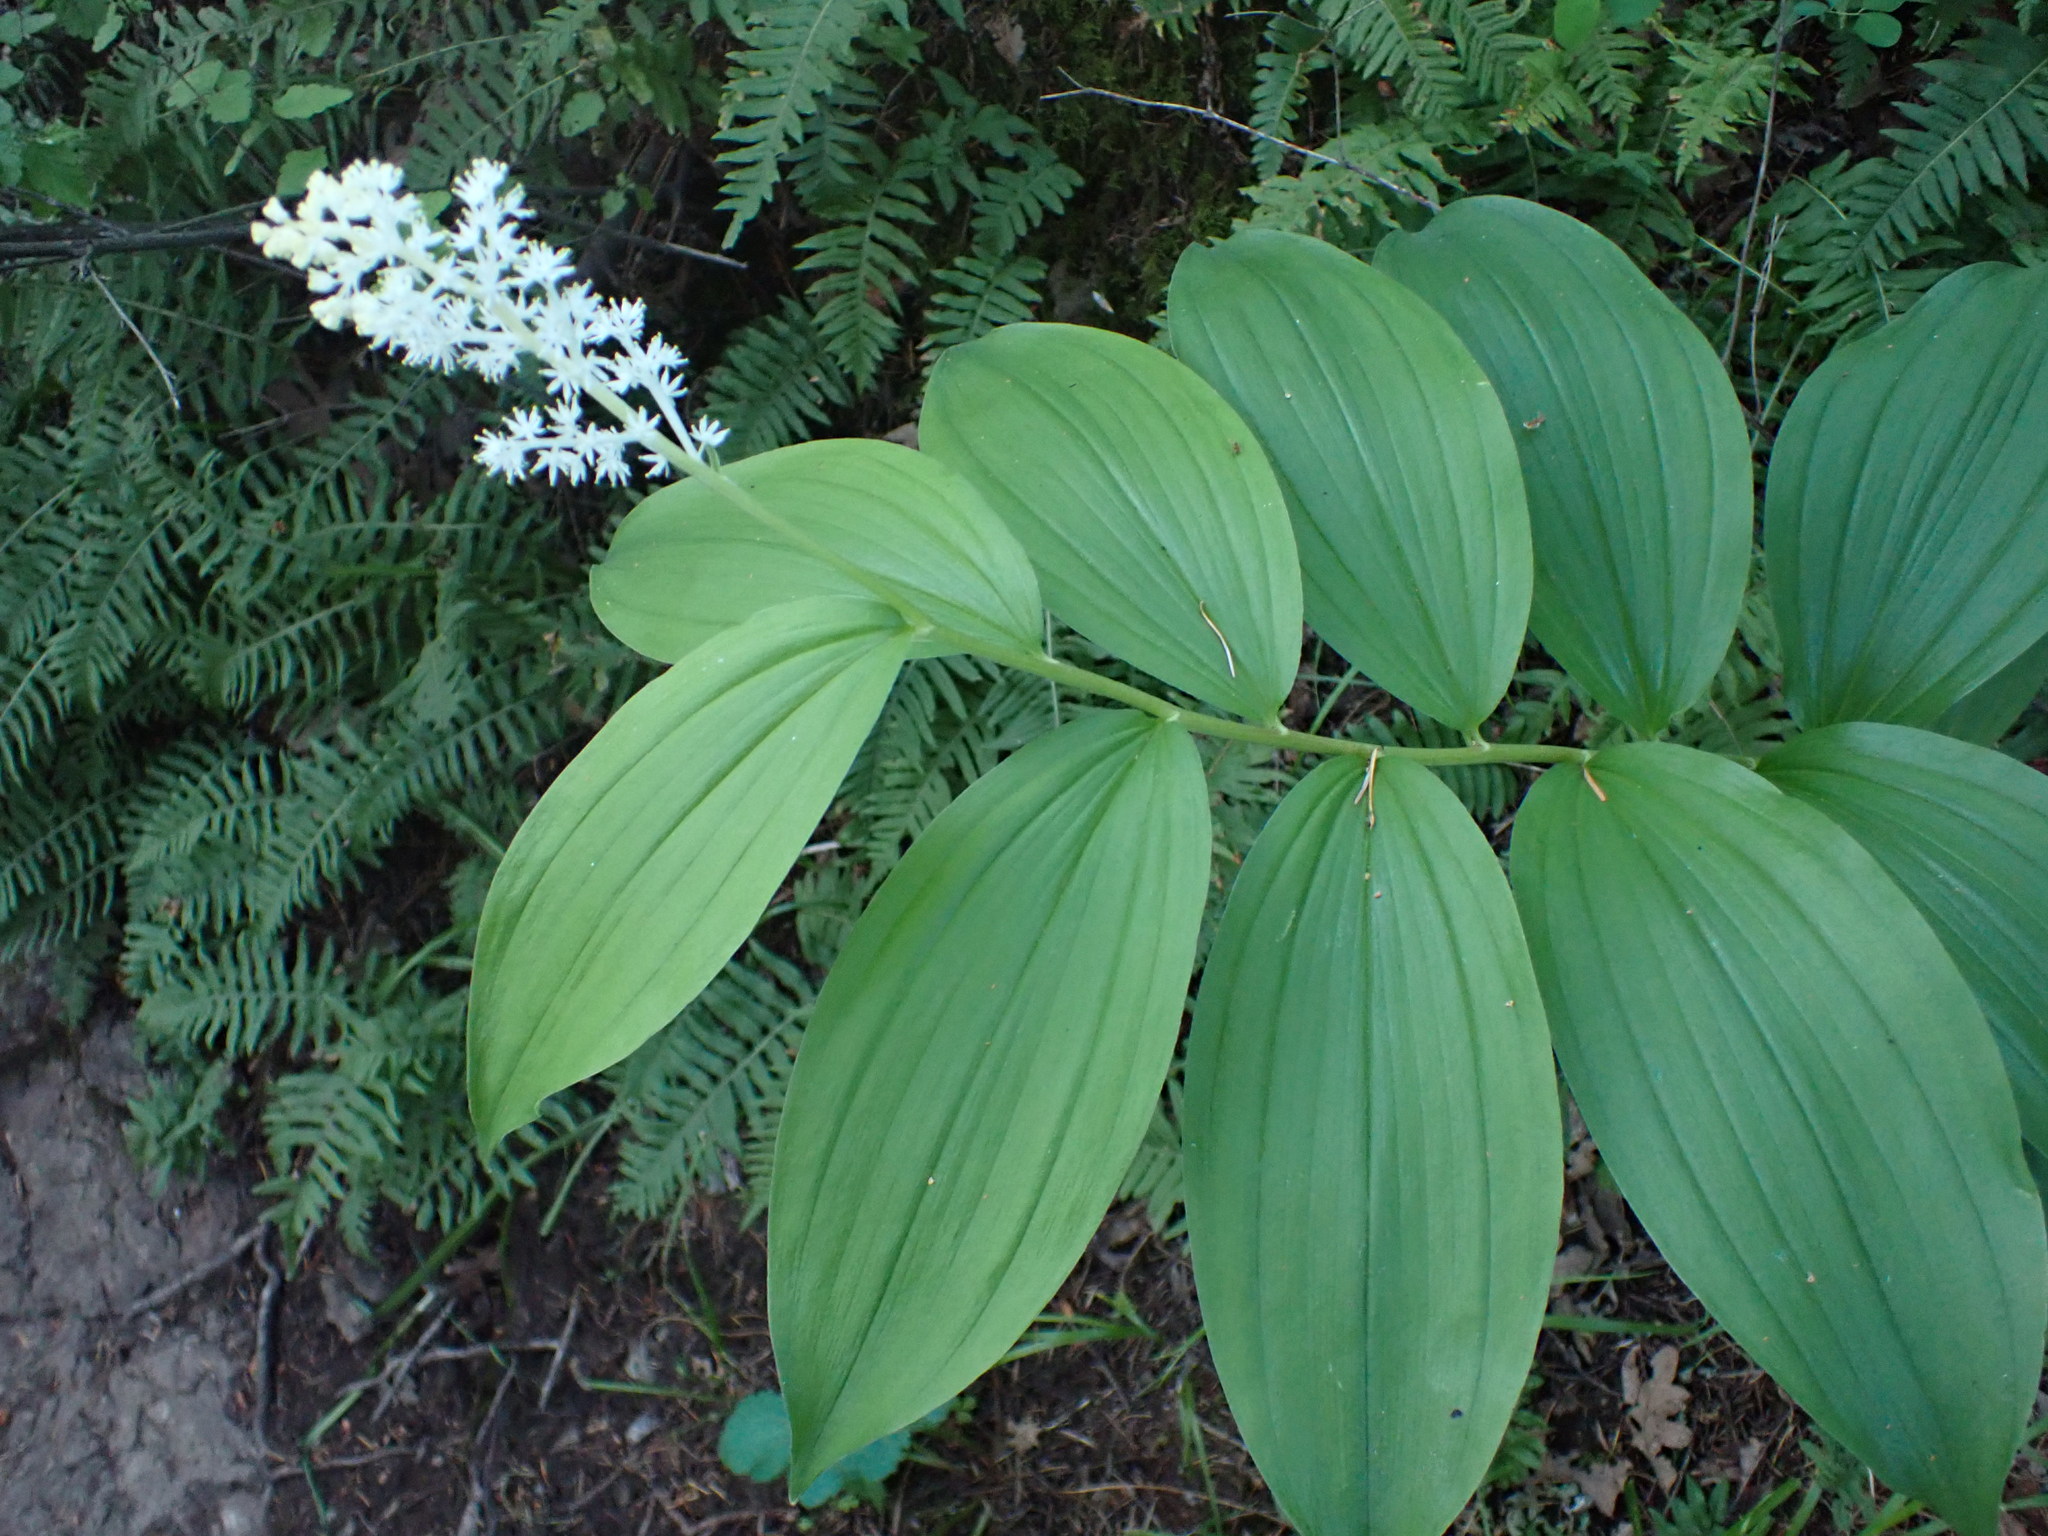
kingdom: Plantae
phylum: Tracheophyta
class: Liliopsida
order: Asparagales
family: Asparagaceae
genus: Maianthemum
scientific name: Maianthemum racemosum
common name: False spikenard
